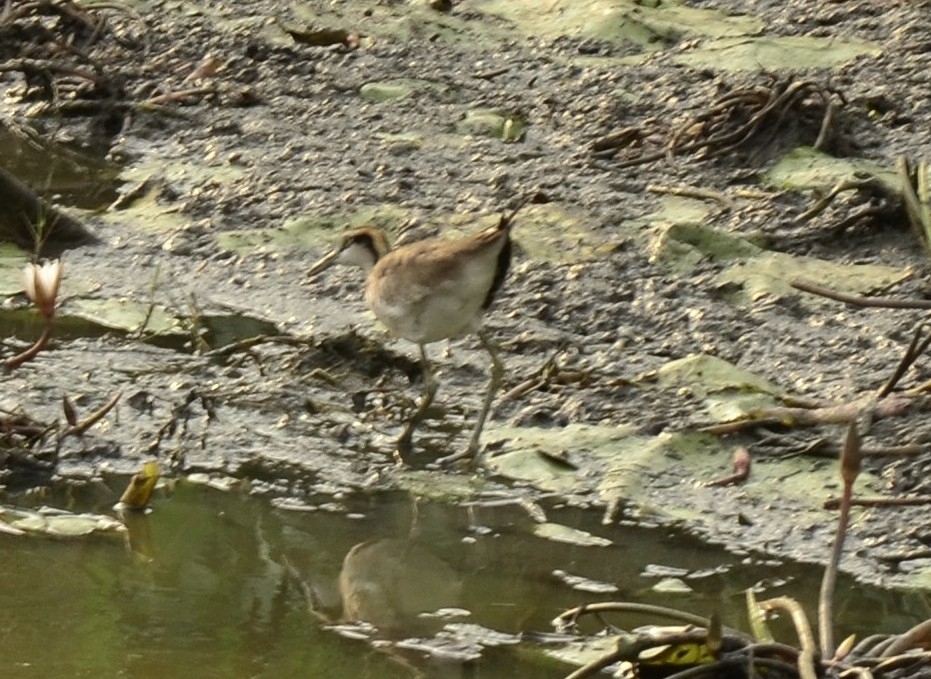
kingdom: Animalia
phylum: Chordata
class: Aves
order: Charadriiformes
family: Jacanidae
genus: Hydrophasianus
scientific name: Hydrophasianus chirurgus
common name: Pheasant-tailed jacana
